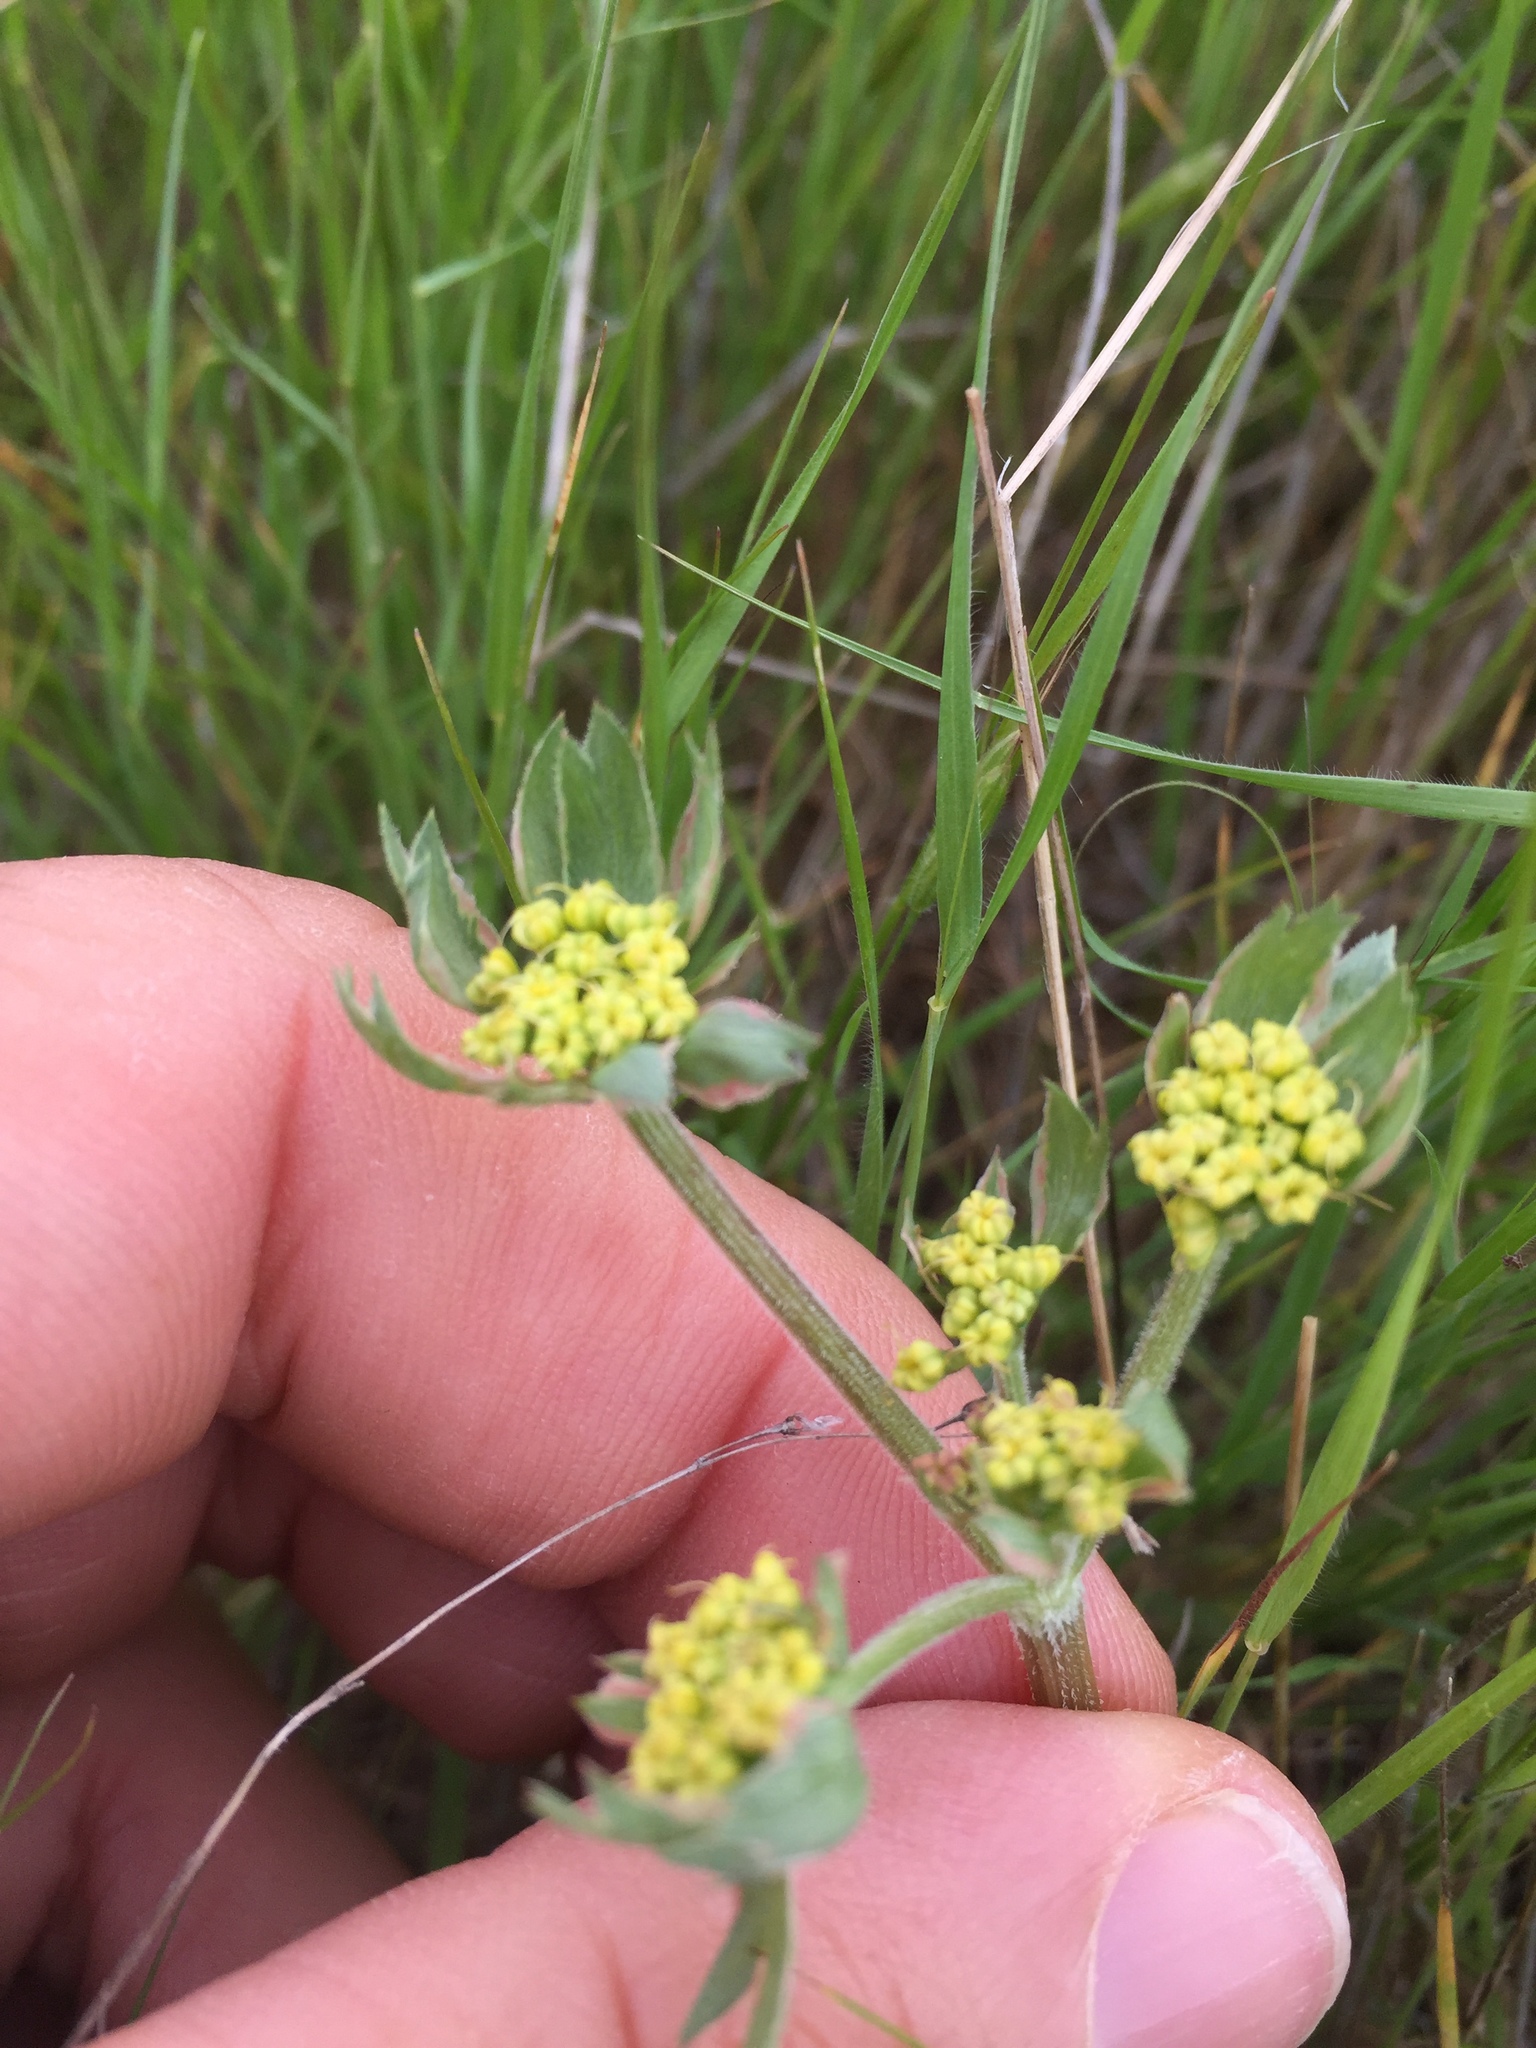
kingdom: Plantae
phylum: Tracheophyta
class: Magnoliopsida
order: Apiales
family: Apiaceae
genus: Lomatium
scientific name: Lomatium caruifolium
